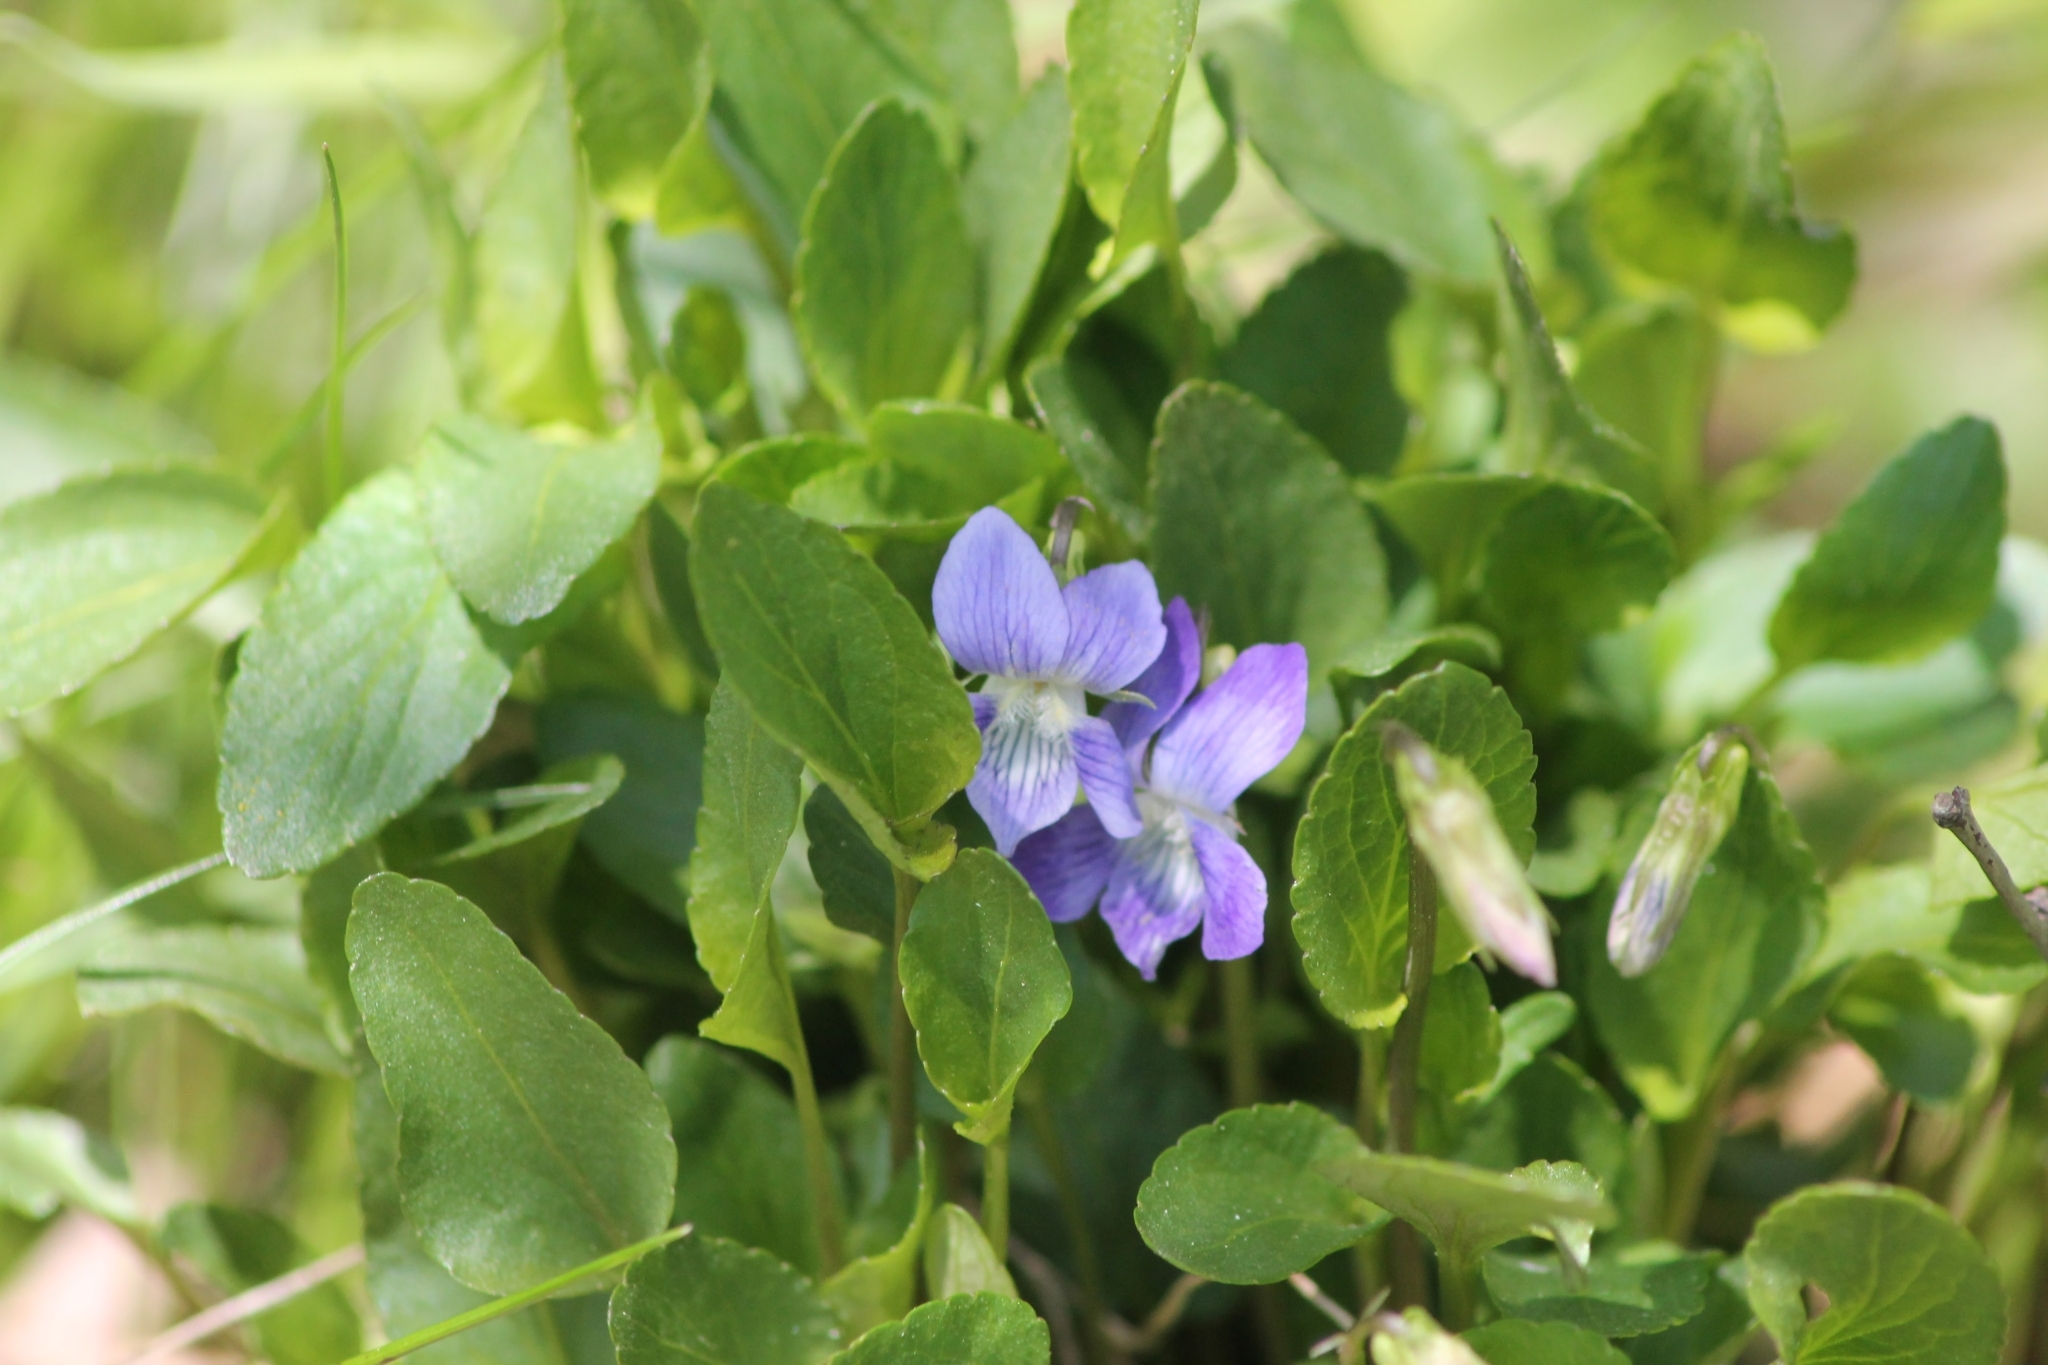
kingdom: Plantae
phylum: Tracheophyta
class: Magnoliopsida
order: Malpighiales
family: Violaceae
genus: Viola
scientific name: Viola canina
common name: Heath dog-violet
